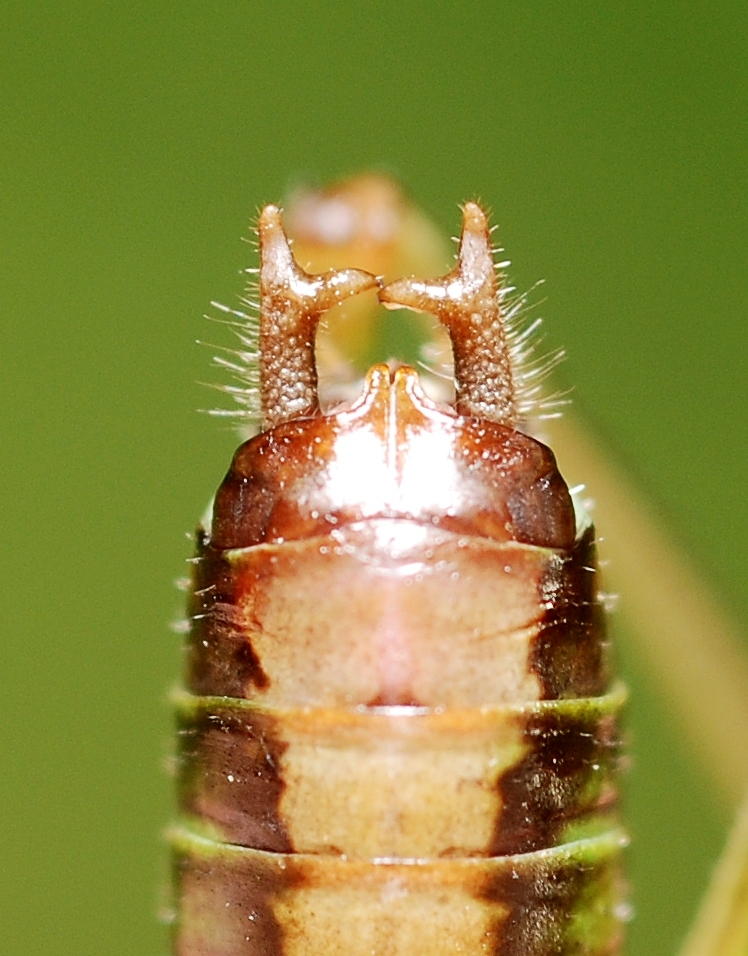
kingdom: Animalia
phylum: Arthropoda
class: Insecta
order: Orthoptera
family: Tettigoniidae
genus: Conocephalus
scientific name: Conocephalus dorsalis
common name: Short-winged conehead
